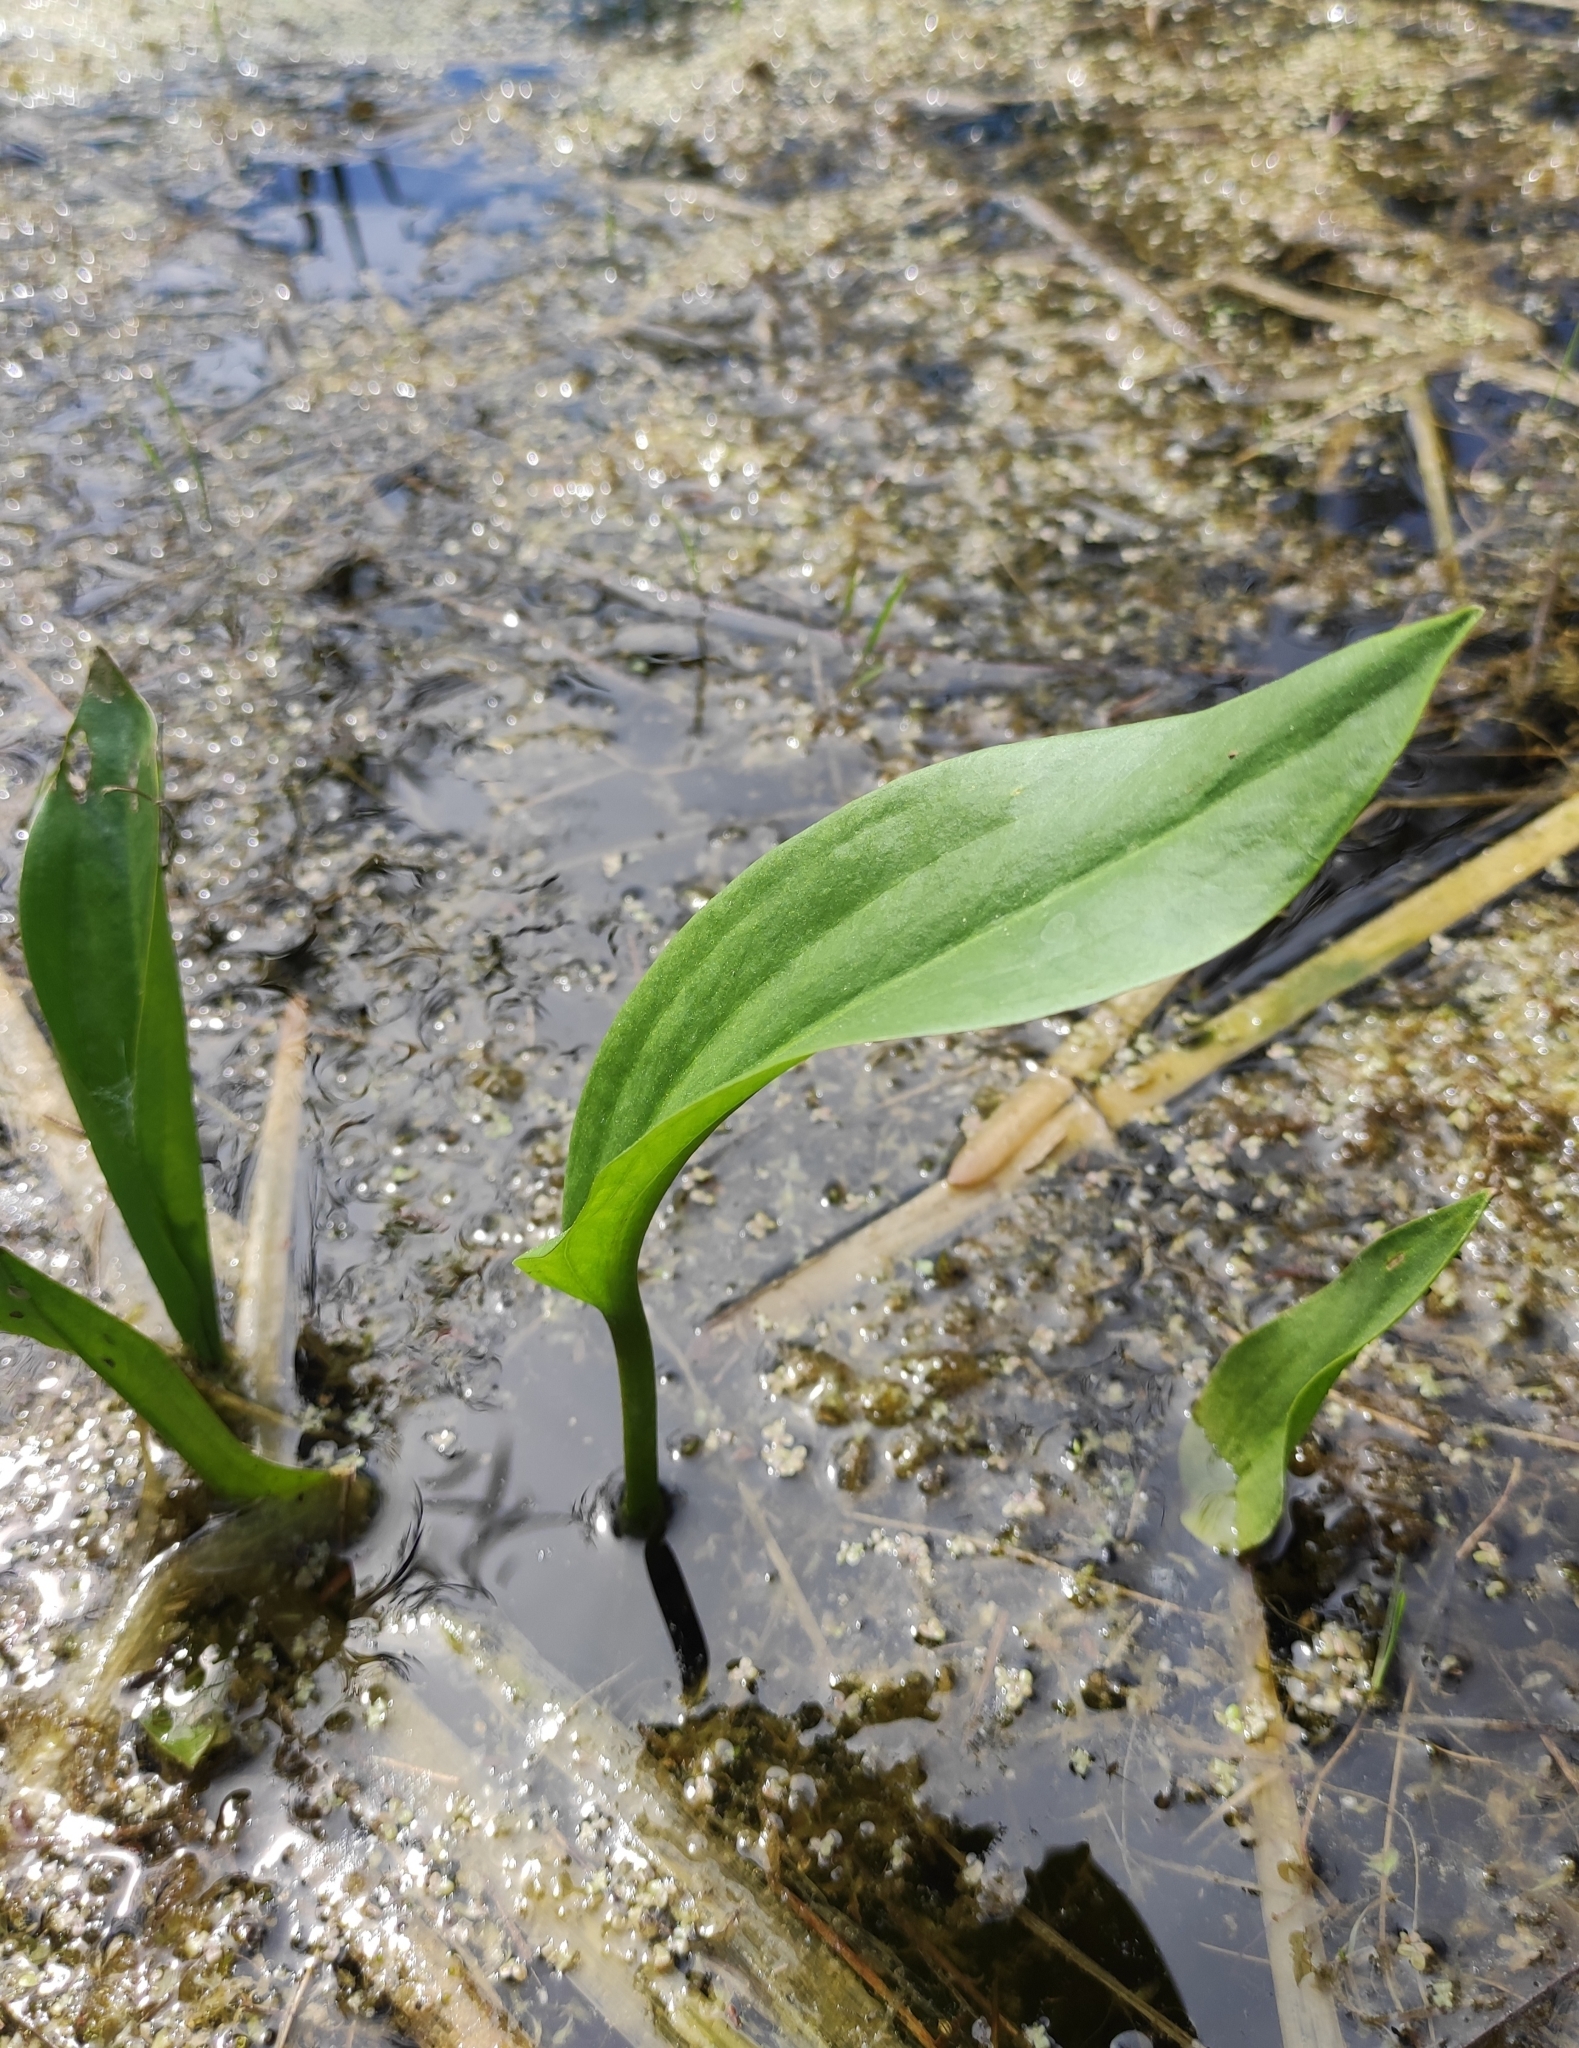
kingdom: Plantae
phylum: Tracheophyta
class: Liliopsida
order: Alismatales
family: Alismataceae
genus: Alisma
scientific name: Alisma plantago-aquatica
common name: Water-plantain
